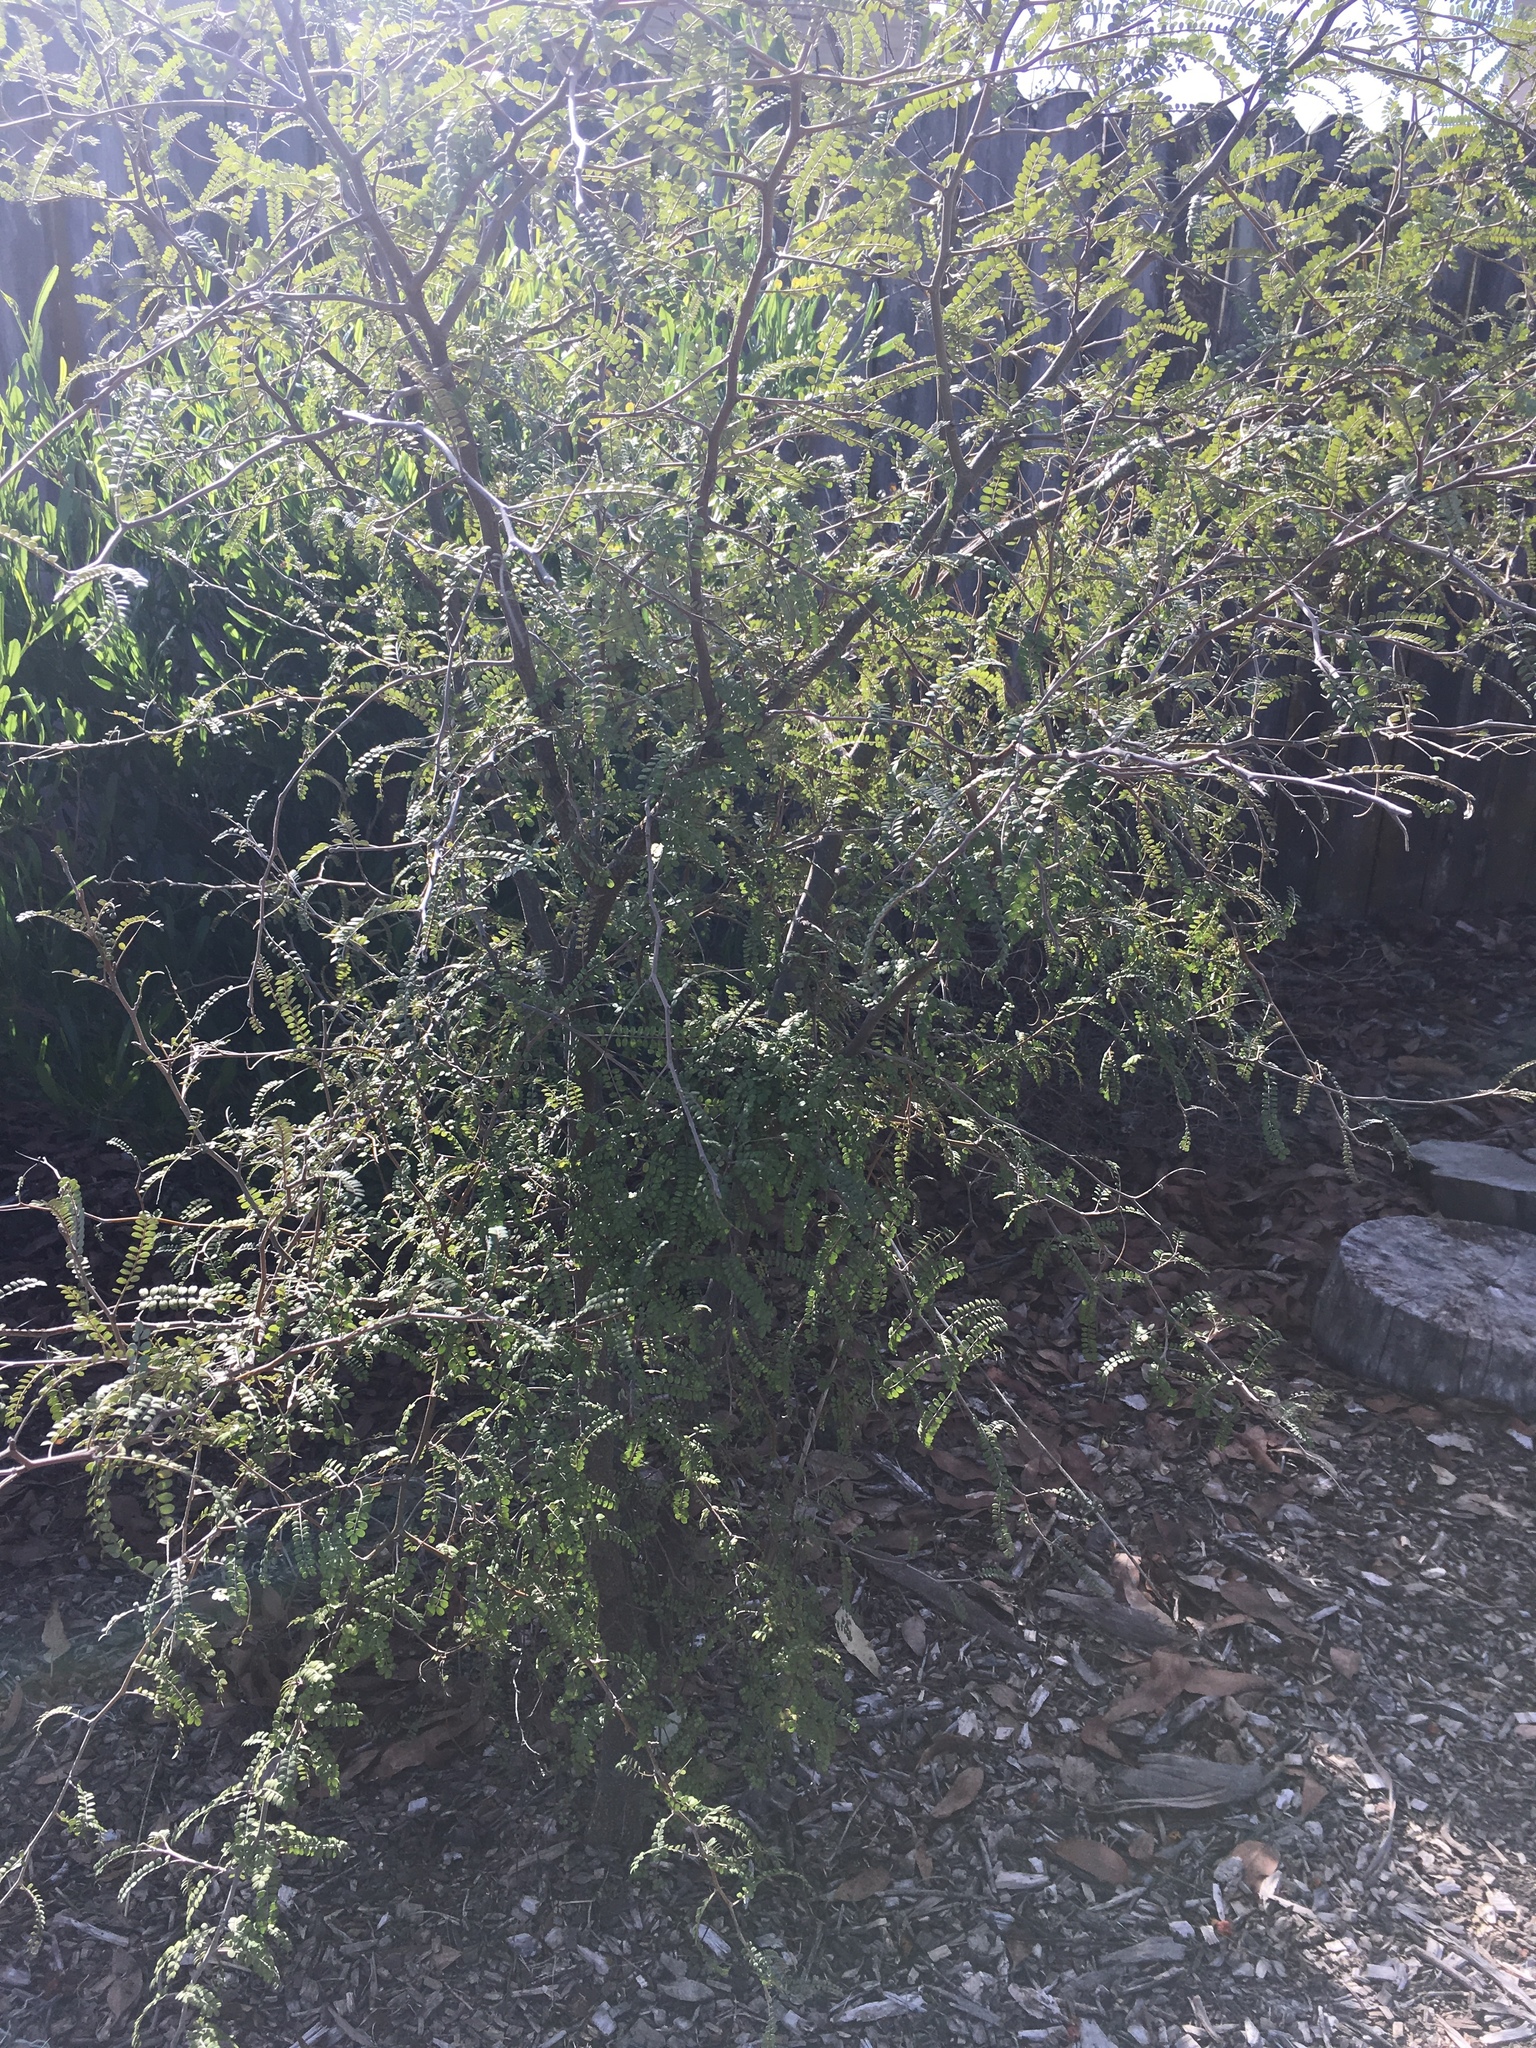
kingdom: Plantae
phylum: Tracheophyta
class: Magnoliopsida
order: Fabales
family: Fabaceae
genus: Sophora
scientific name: Sophora microphylla
